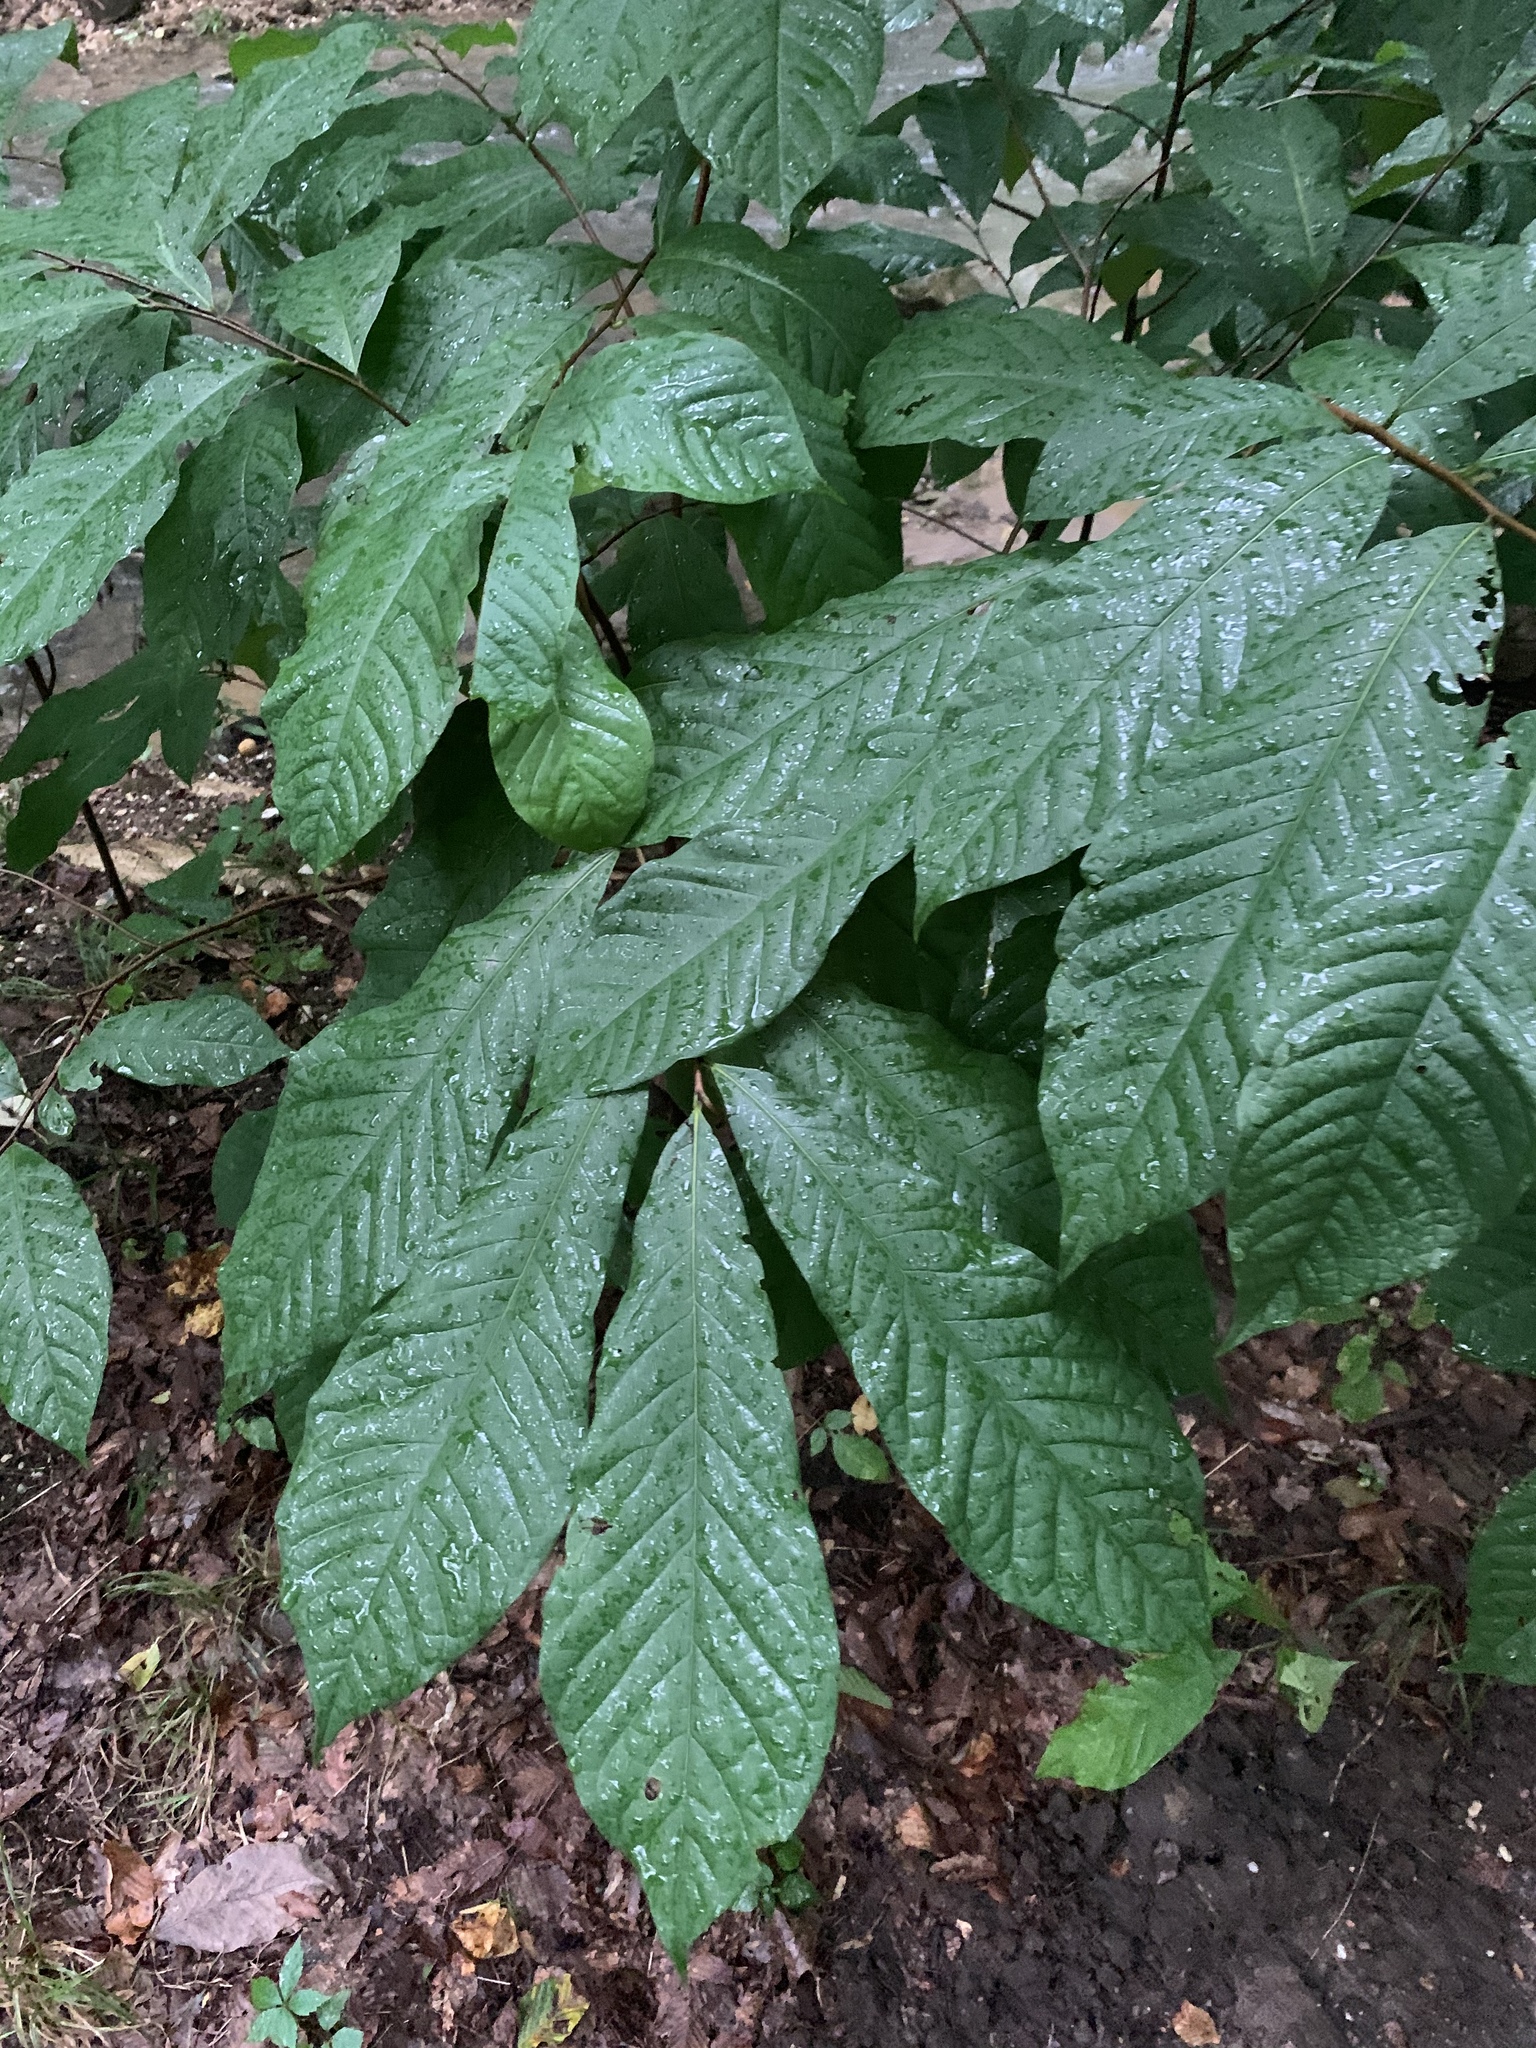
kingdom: Plantae
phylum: Tracheophyta
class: Magnoliopsida
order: Magnoliales
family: Annonaceae
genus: Asimina
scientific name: Asimina triloba
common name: Dog-banana
